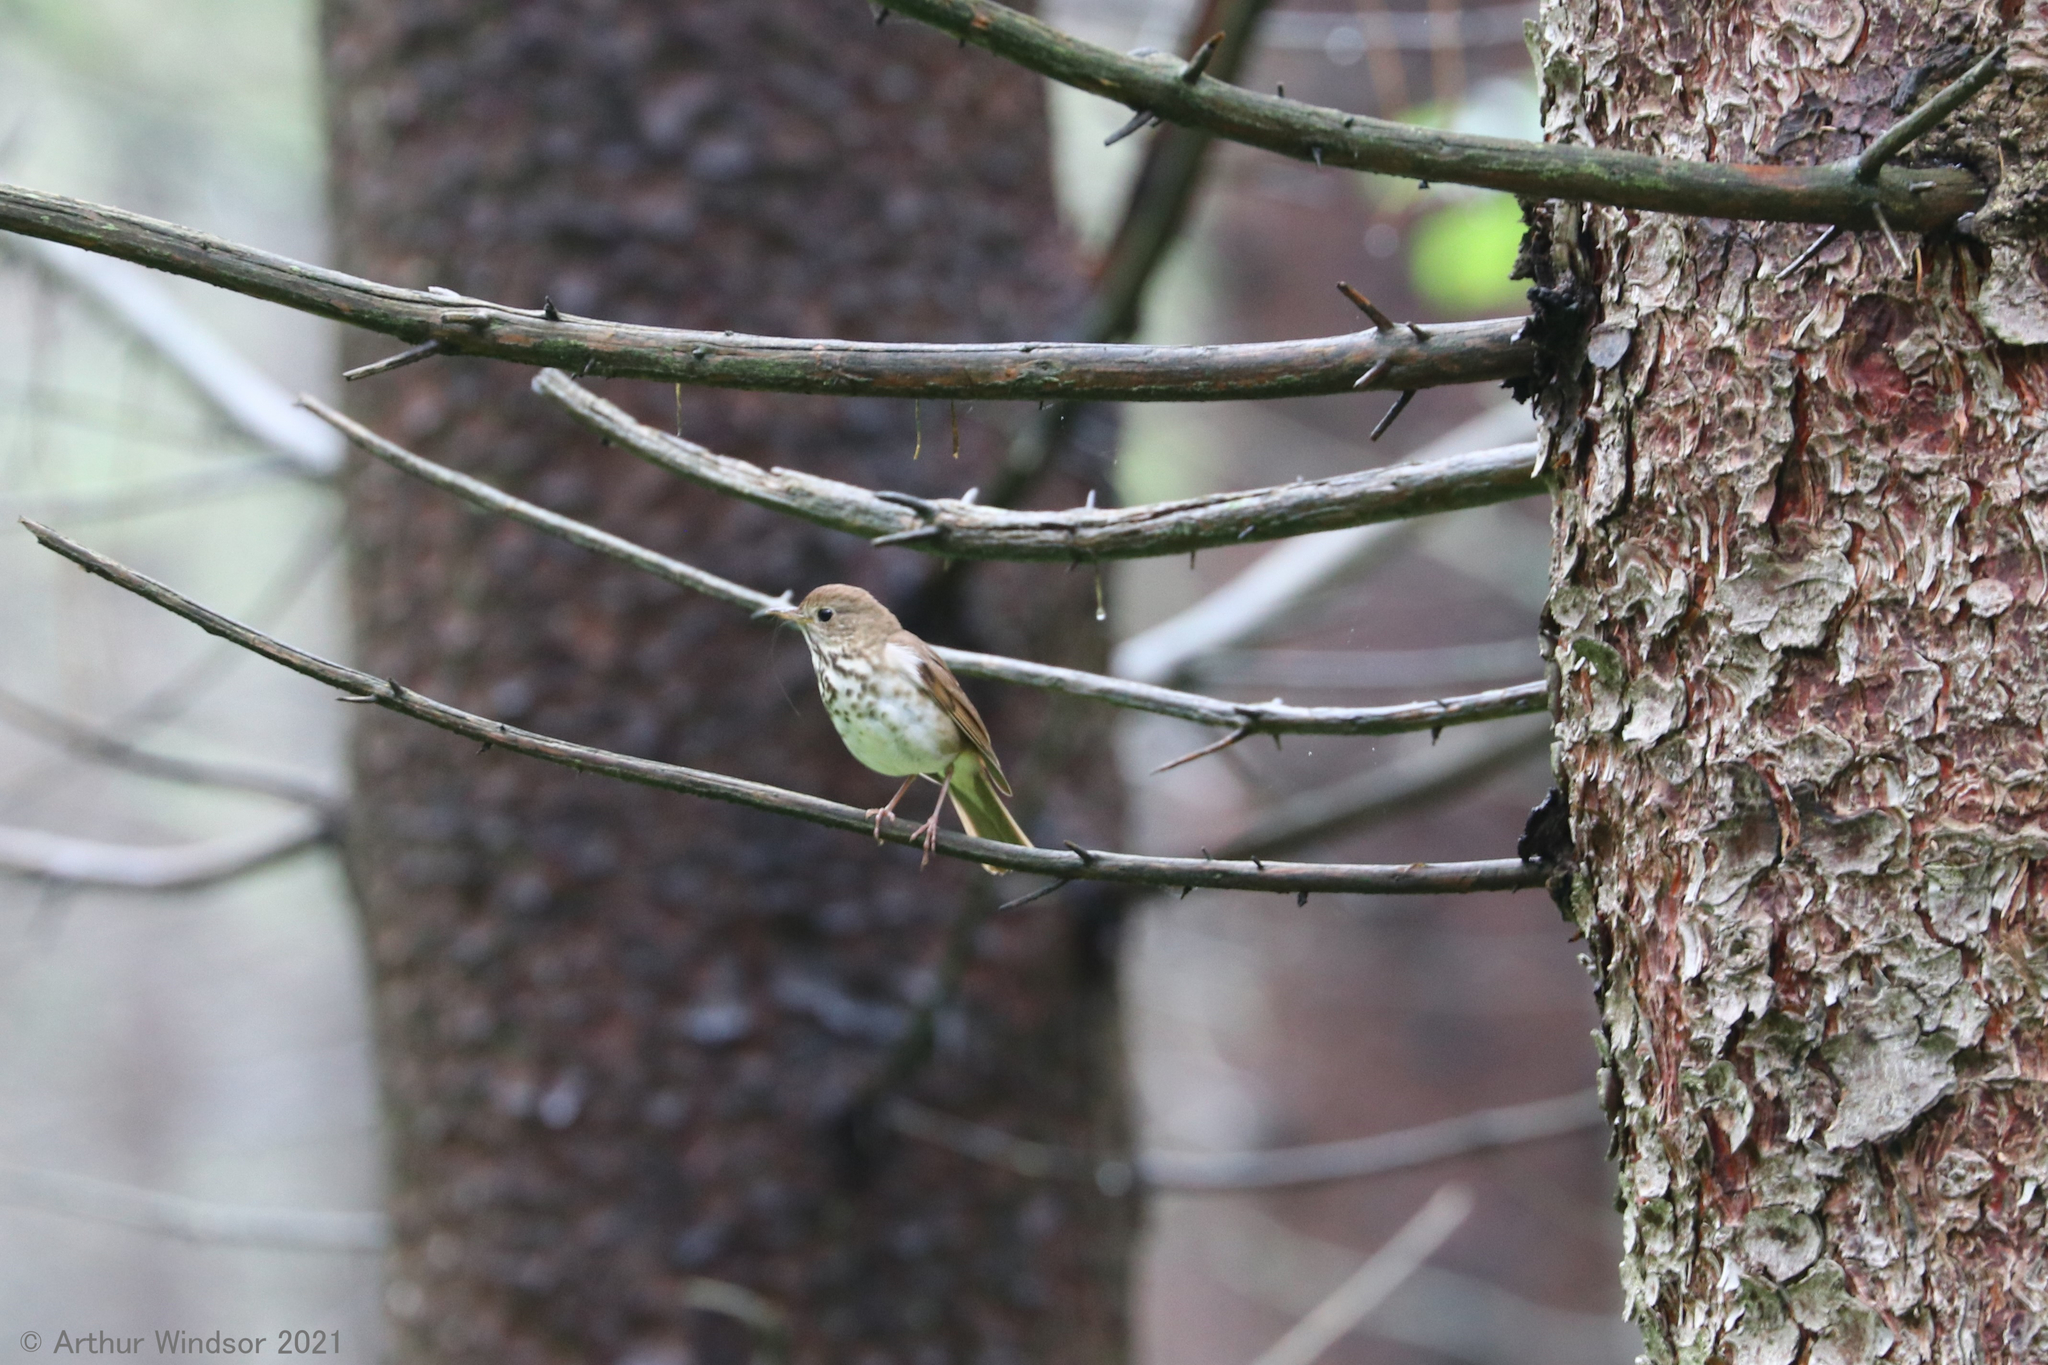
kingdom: Animalia
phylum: Chordata
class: Aves
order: Passeriformes
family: Turdidae
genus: Catharus
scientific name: Catharus guttatus
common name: Hermit thrush
